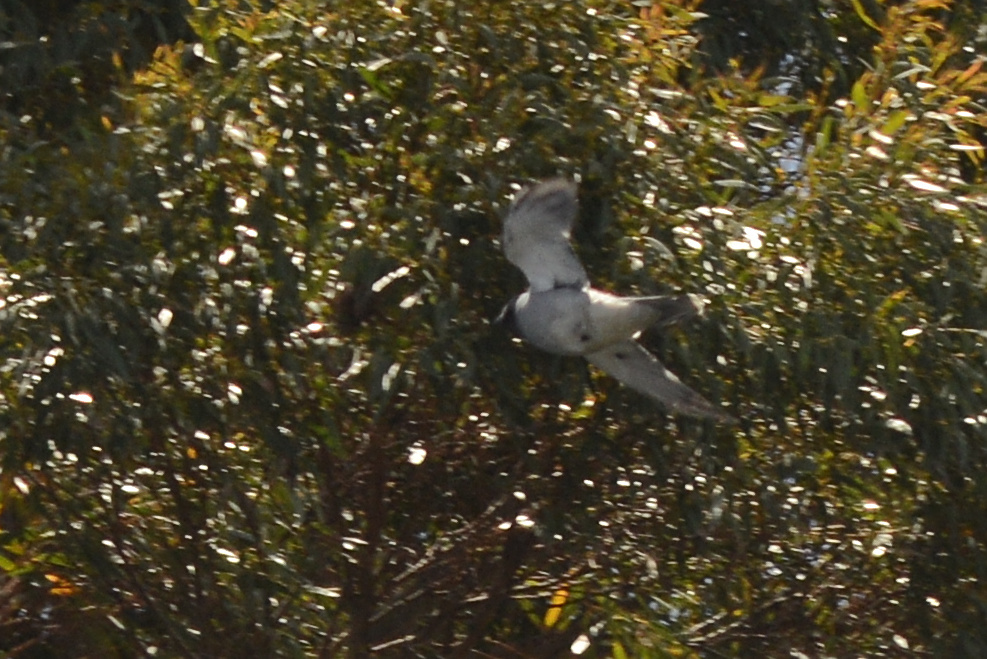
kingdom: Animalia
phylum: Chordata
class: Aves
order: Passeriformes
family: Campephagidae
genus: Coracina
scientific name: Coracina novaehollandiae
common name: Black-faced cuckooshrike
